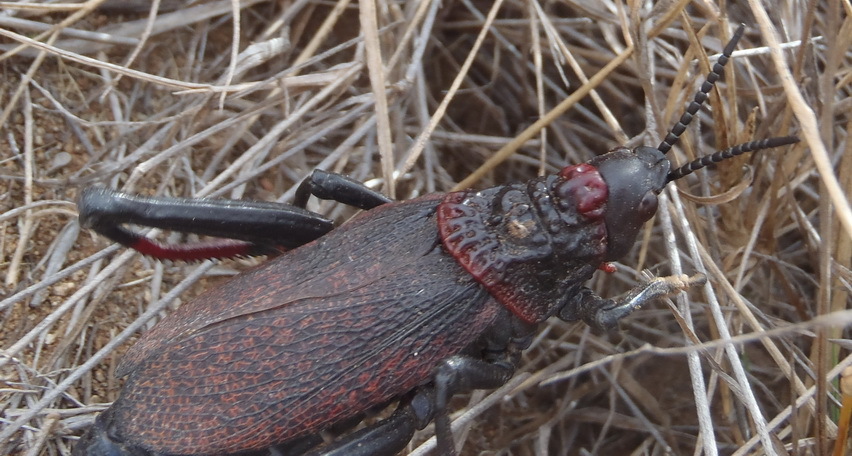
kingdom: Animalia
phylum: Arthropoda
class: Insecta
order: Orthoptera
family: Pyrgomorphidae
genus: Dictyophorus
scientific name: Dictyophorus spumans
